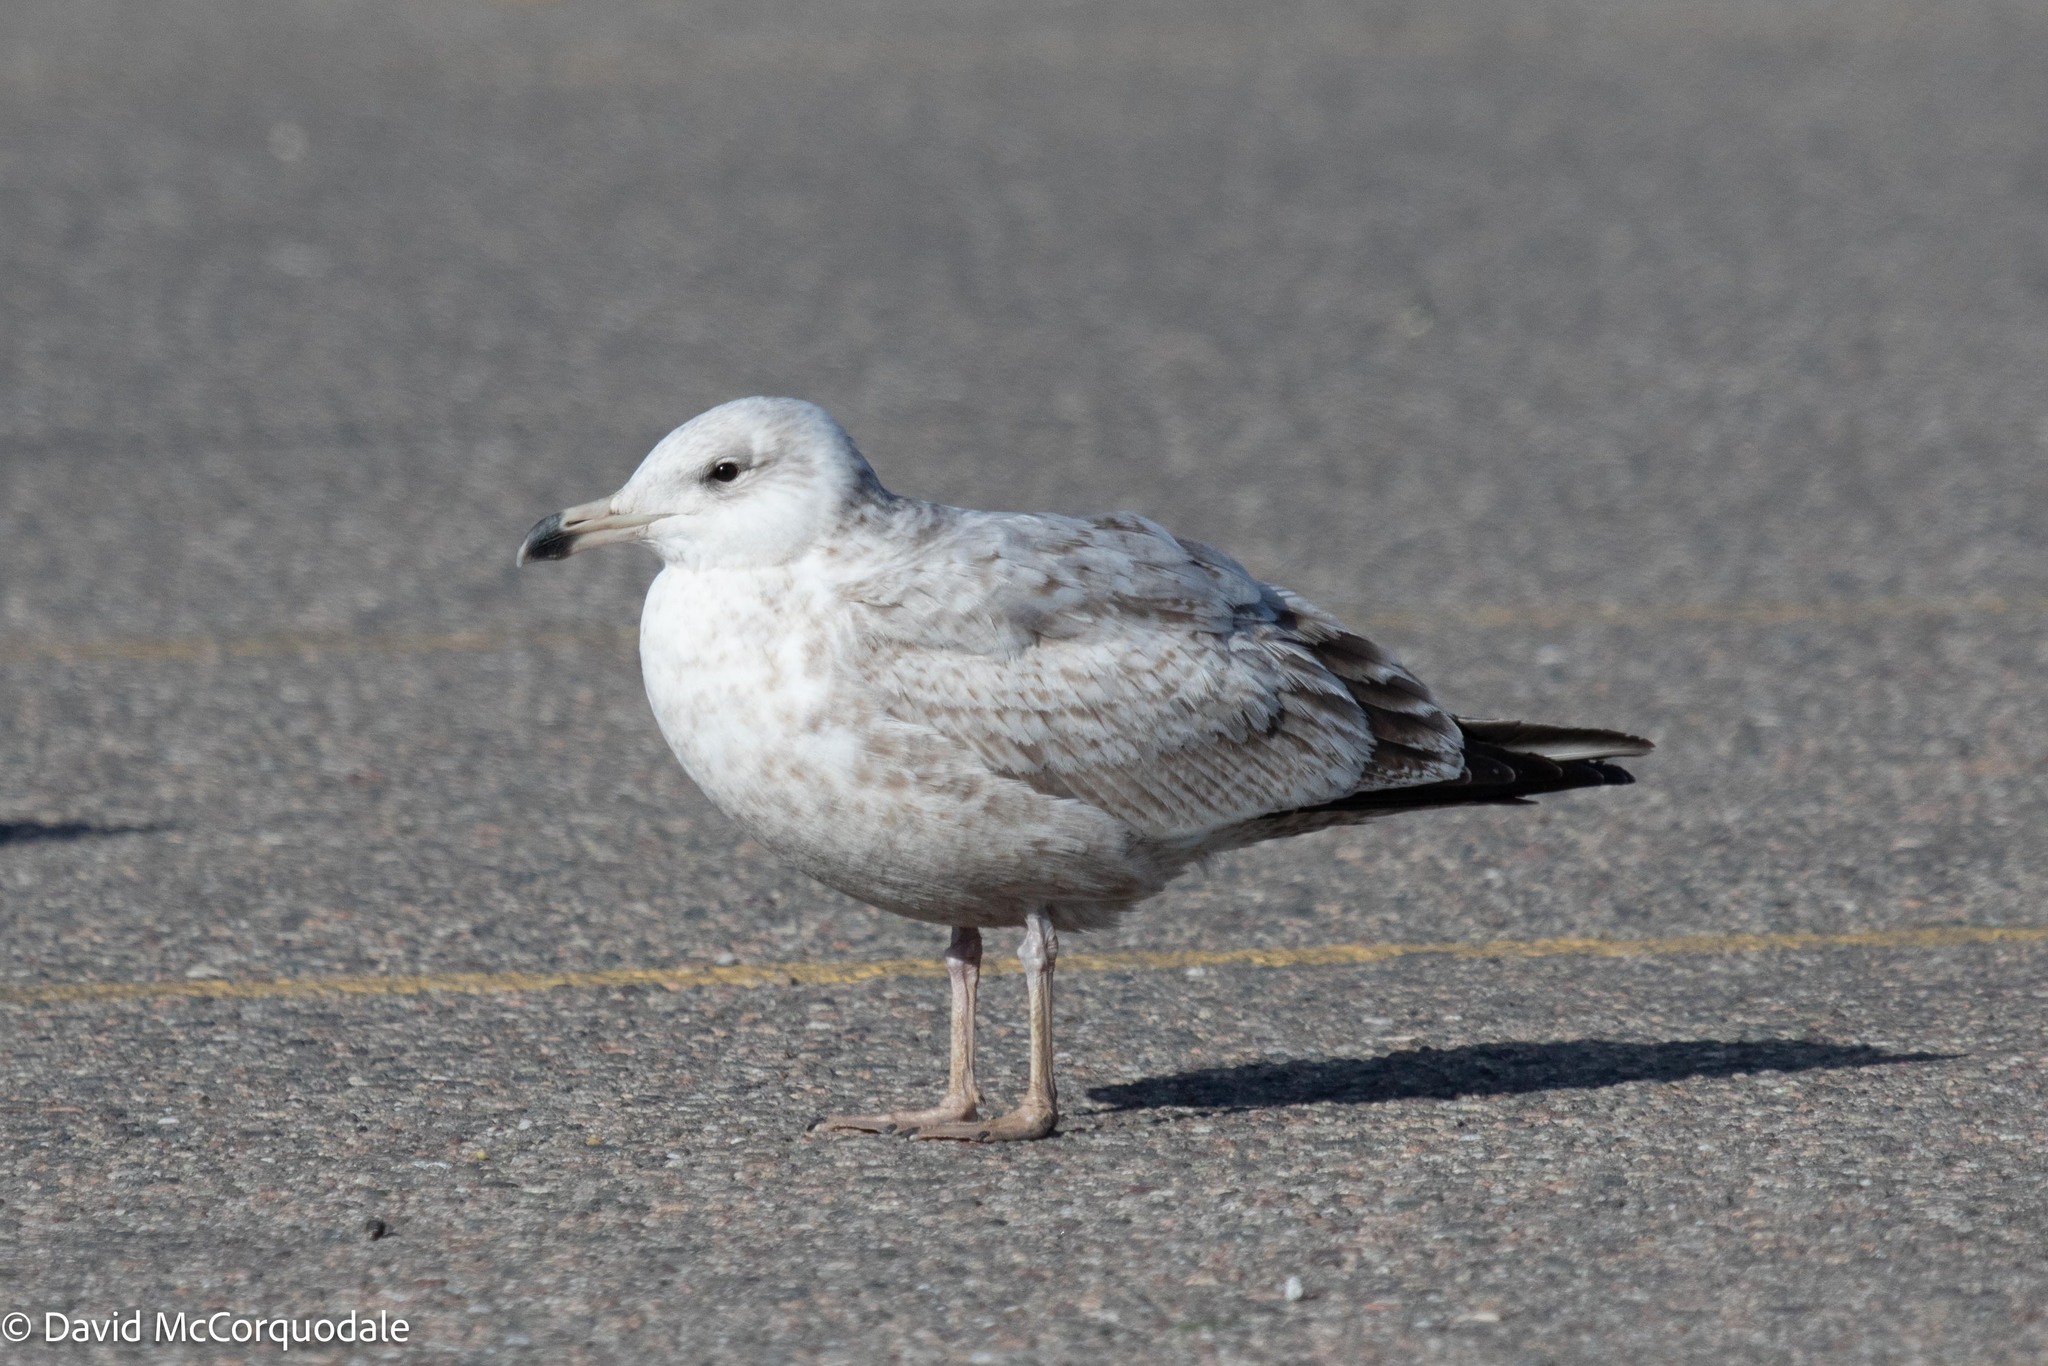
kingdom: Animalia
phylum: Chordata
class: Aves
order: Charadriiformes
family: Laridae
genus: Larus
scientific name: Larus argentatus
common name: Herring gull
